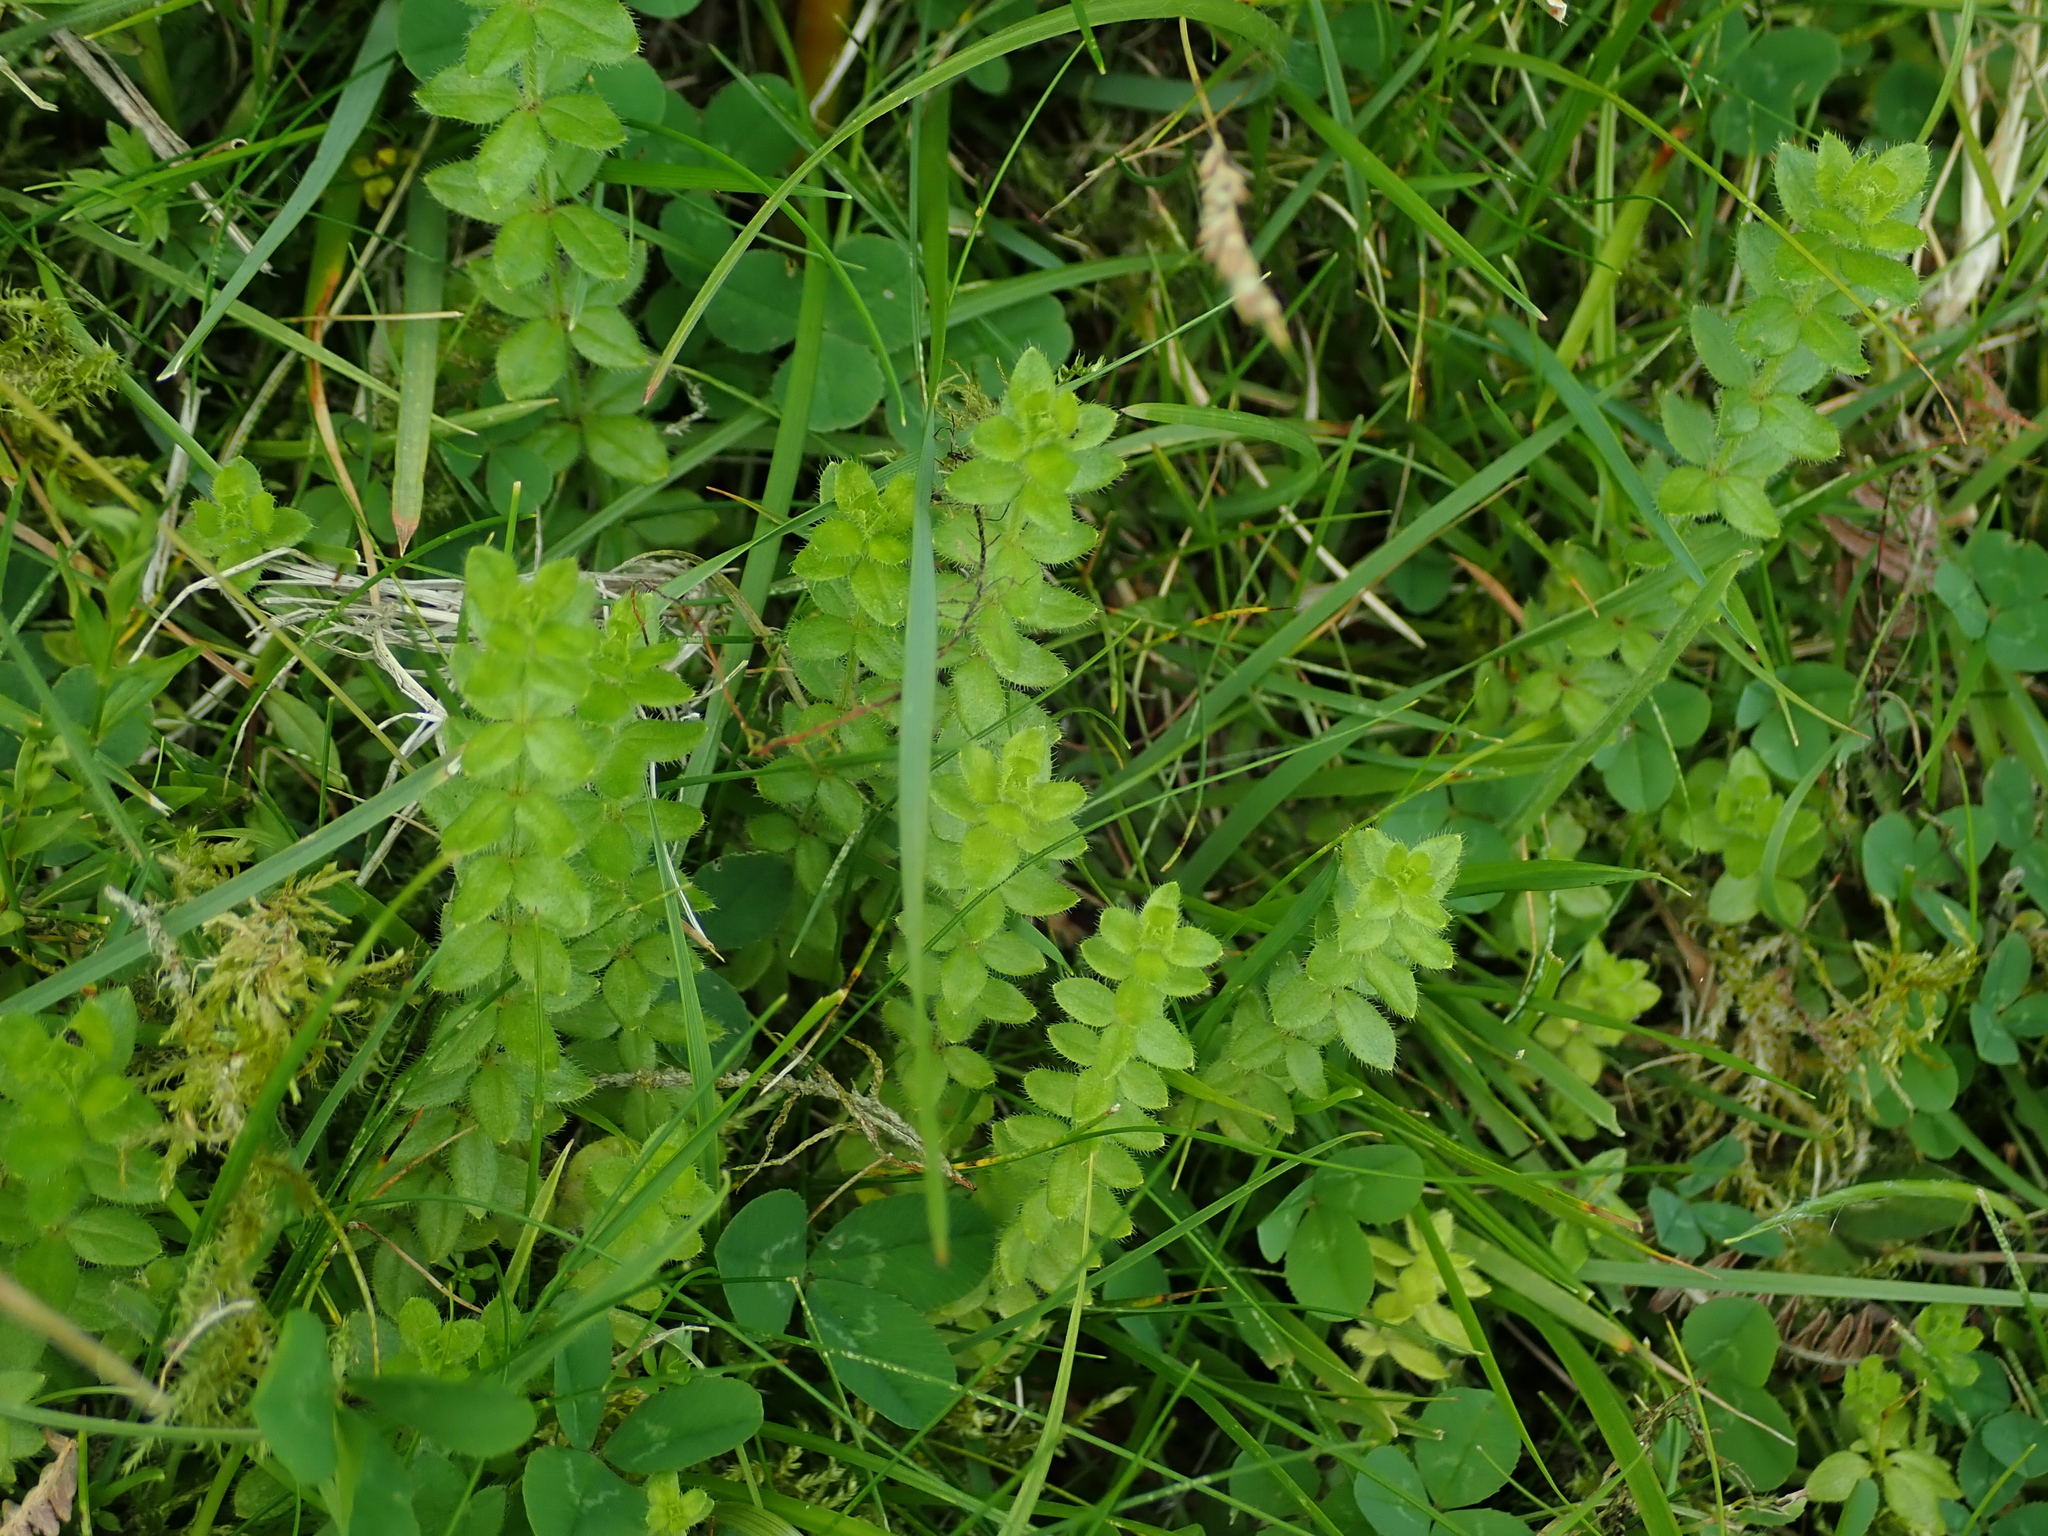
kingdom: Plantae
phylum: Tracheophyta
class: Magnoliopsida
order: Gentianales
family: Rubiaceae
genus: Cruciata
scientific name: Cruciata laevipes
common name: Crosswort
